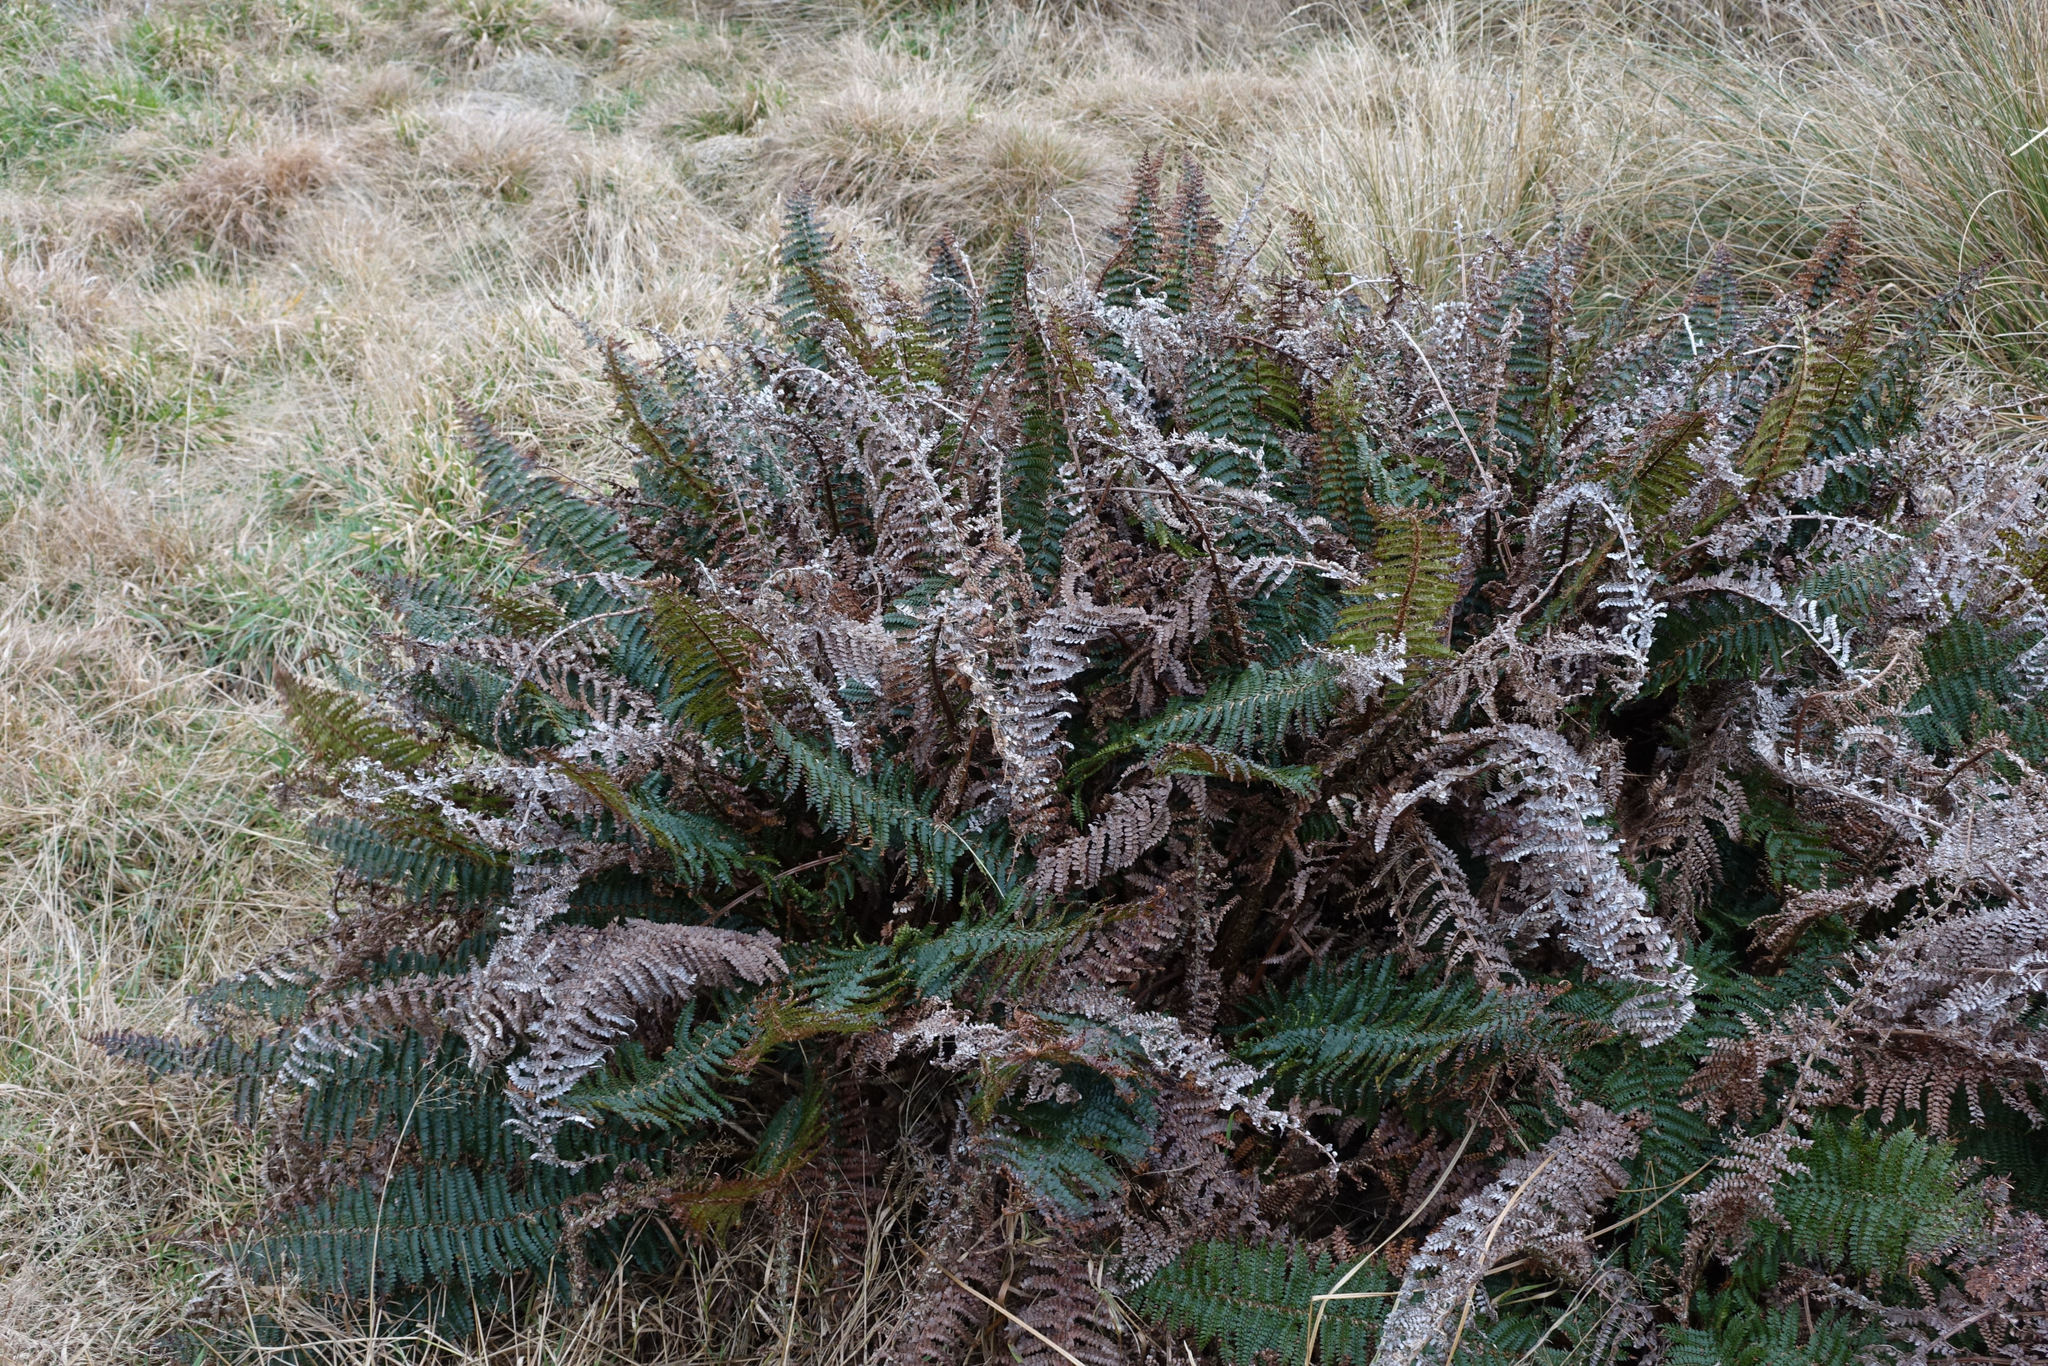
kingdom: Plantae
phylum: Tracheophyta
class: Polypodiopsida
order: Polypodiales
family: Dryopteridaceae
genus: Polystichum
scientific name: Polystichum vestitum
